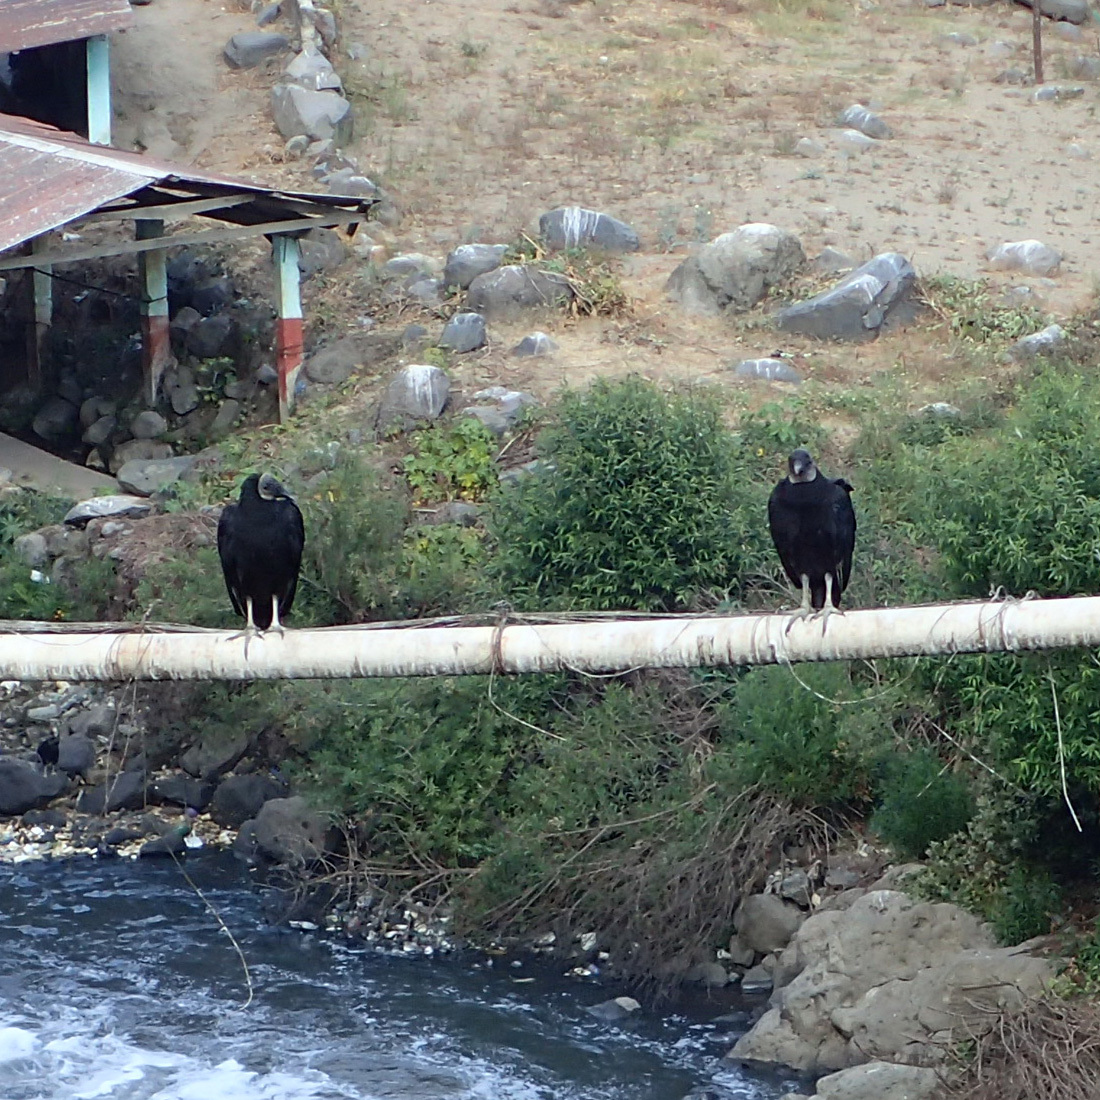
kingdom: Animalia
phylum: Chordata
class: Aves
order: Accipitriformes
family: Cathartidae
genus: Coragyps
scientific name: Coragyps atratus
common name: Black vulture
